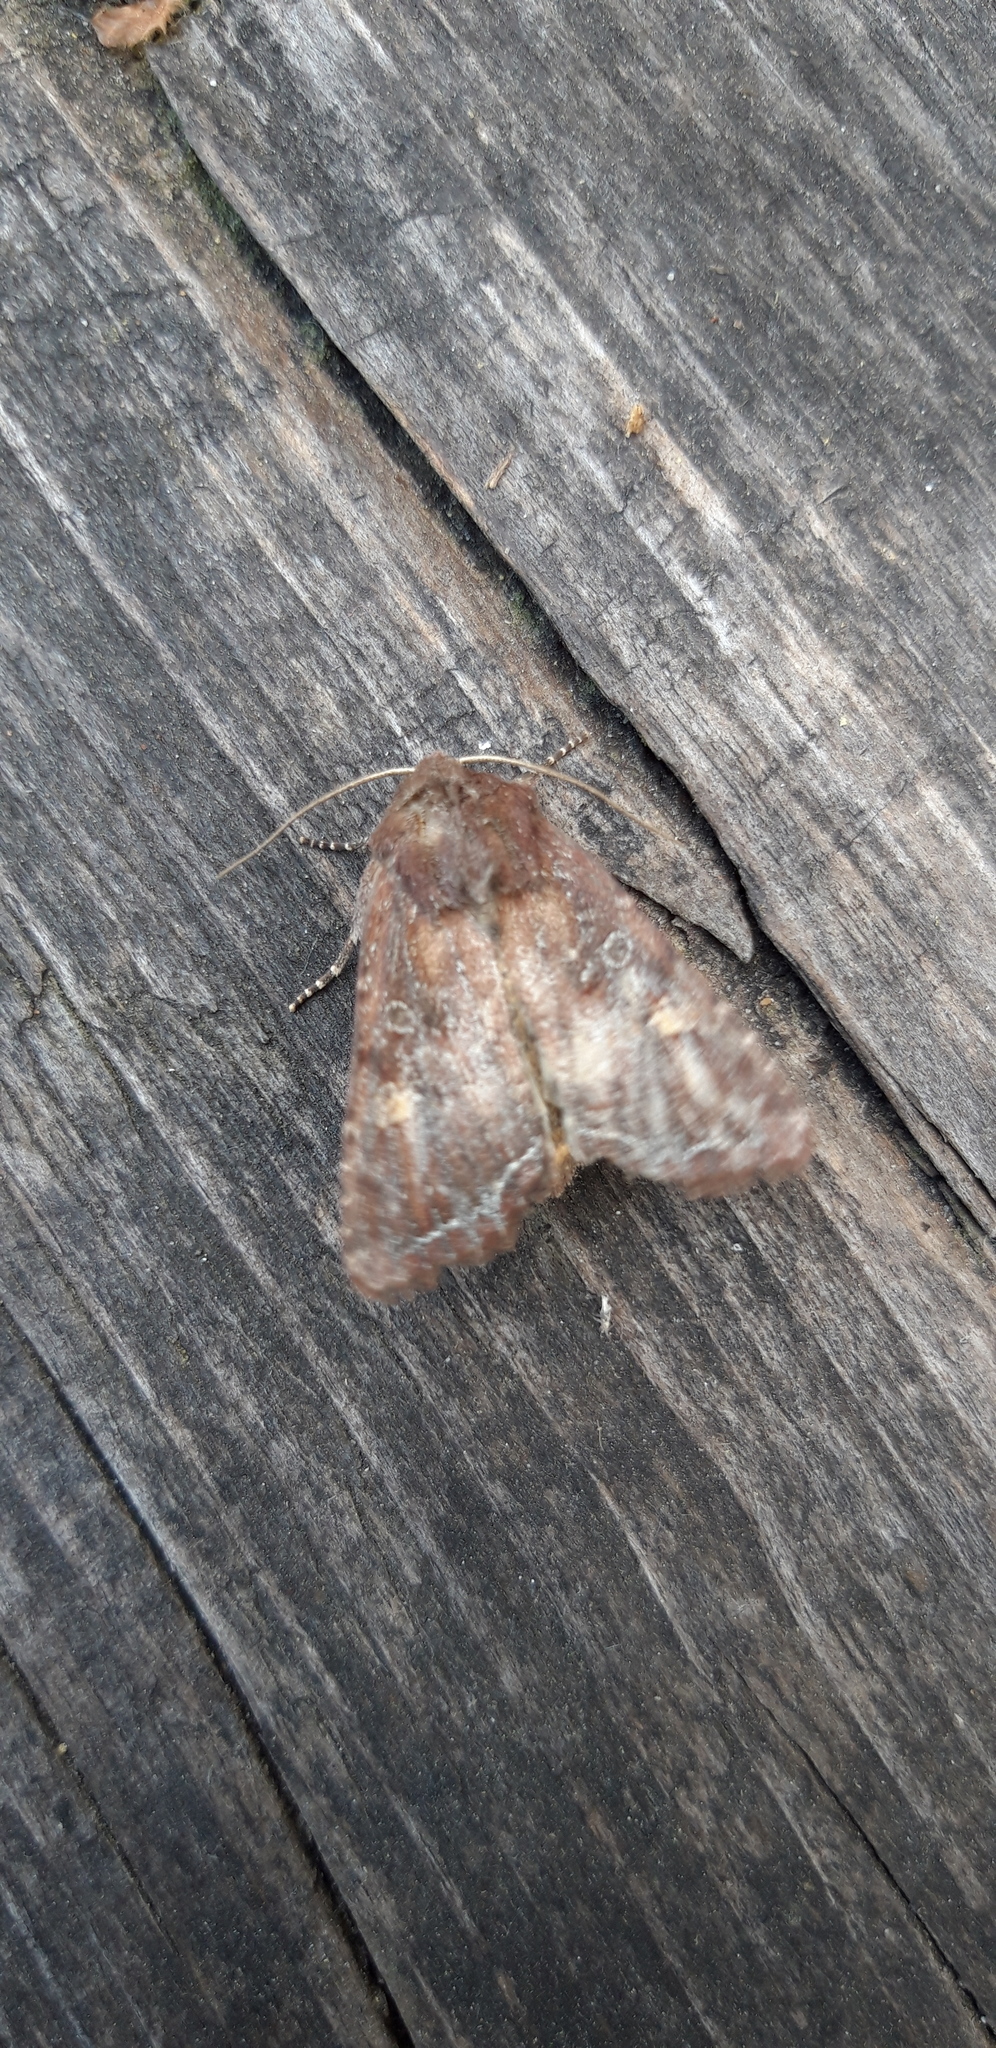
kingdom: Animalia
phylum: Arthropoda
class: Insecta
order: Lepidoptera
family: Noctuidae
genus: Lacanobia
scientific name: Lacanobia oleracea
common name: Bright-line brown-eye
